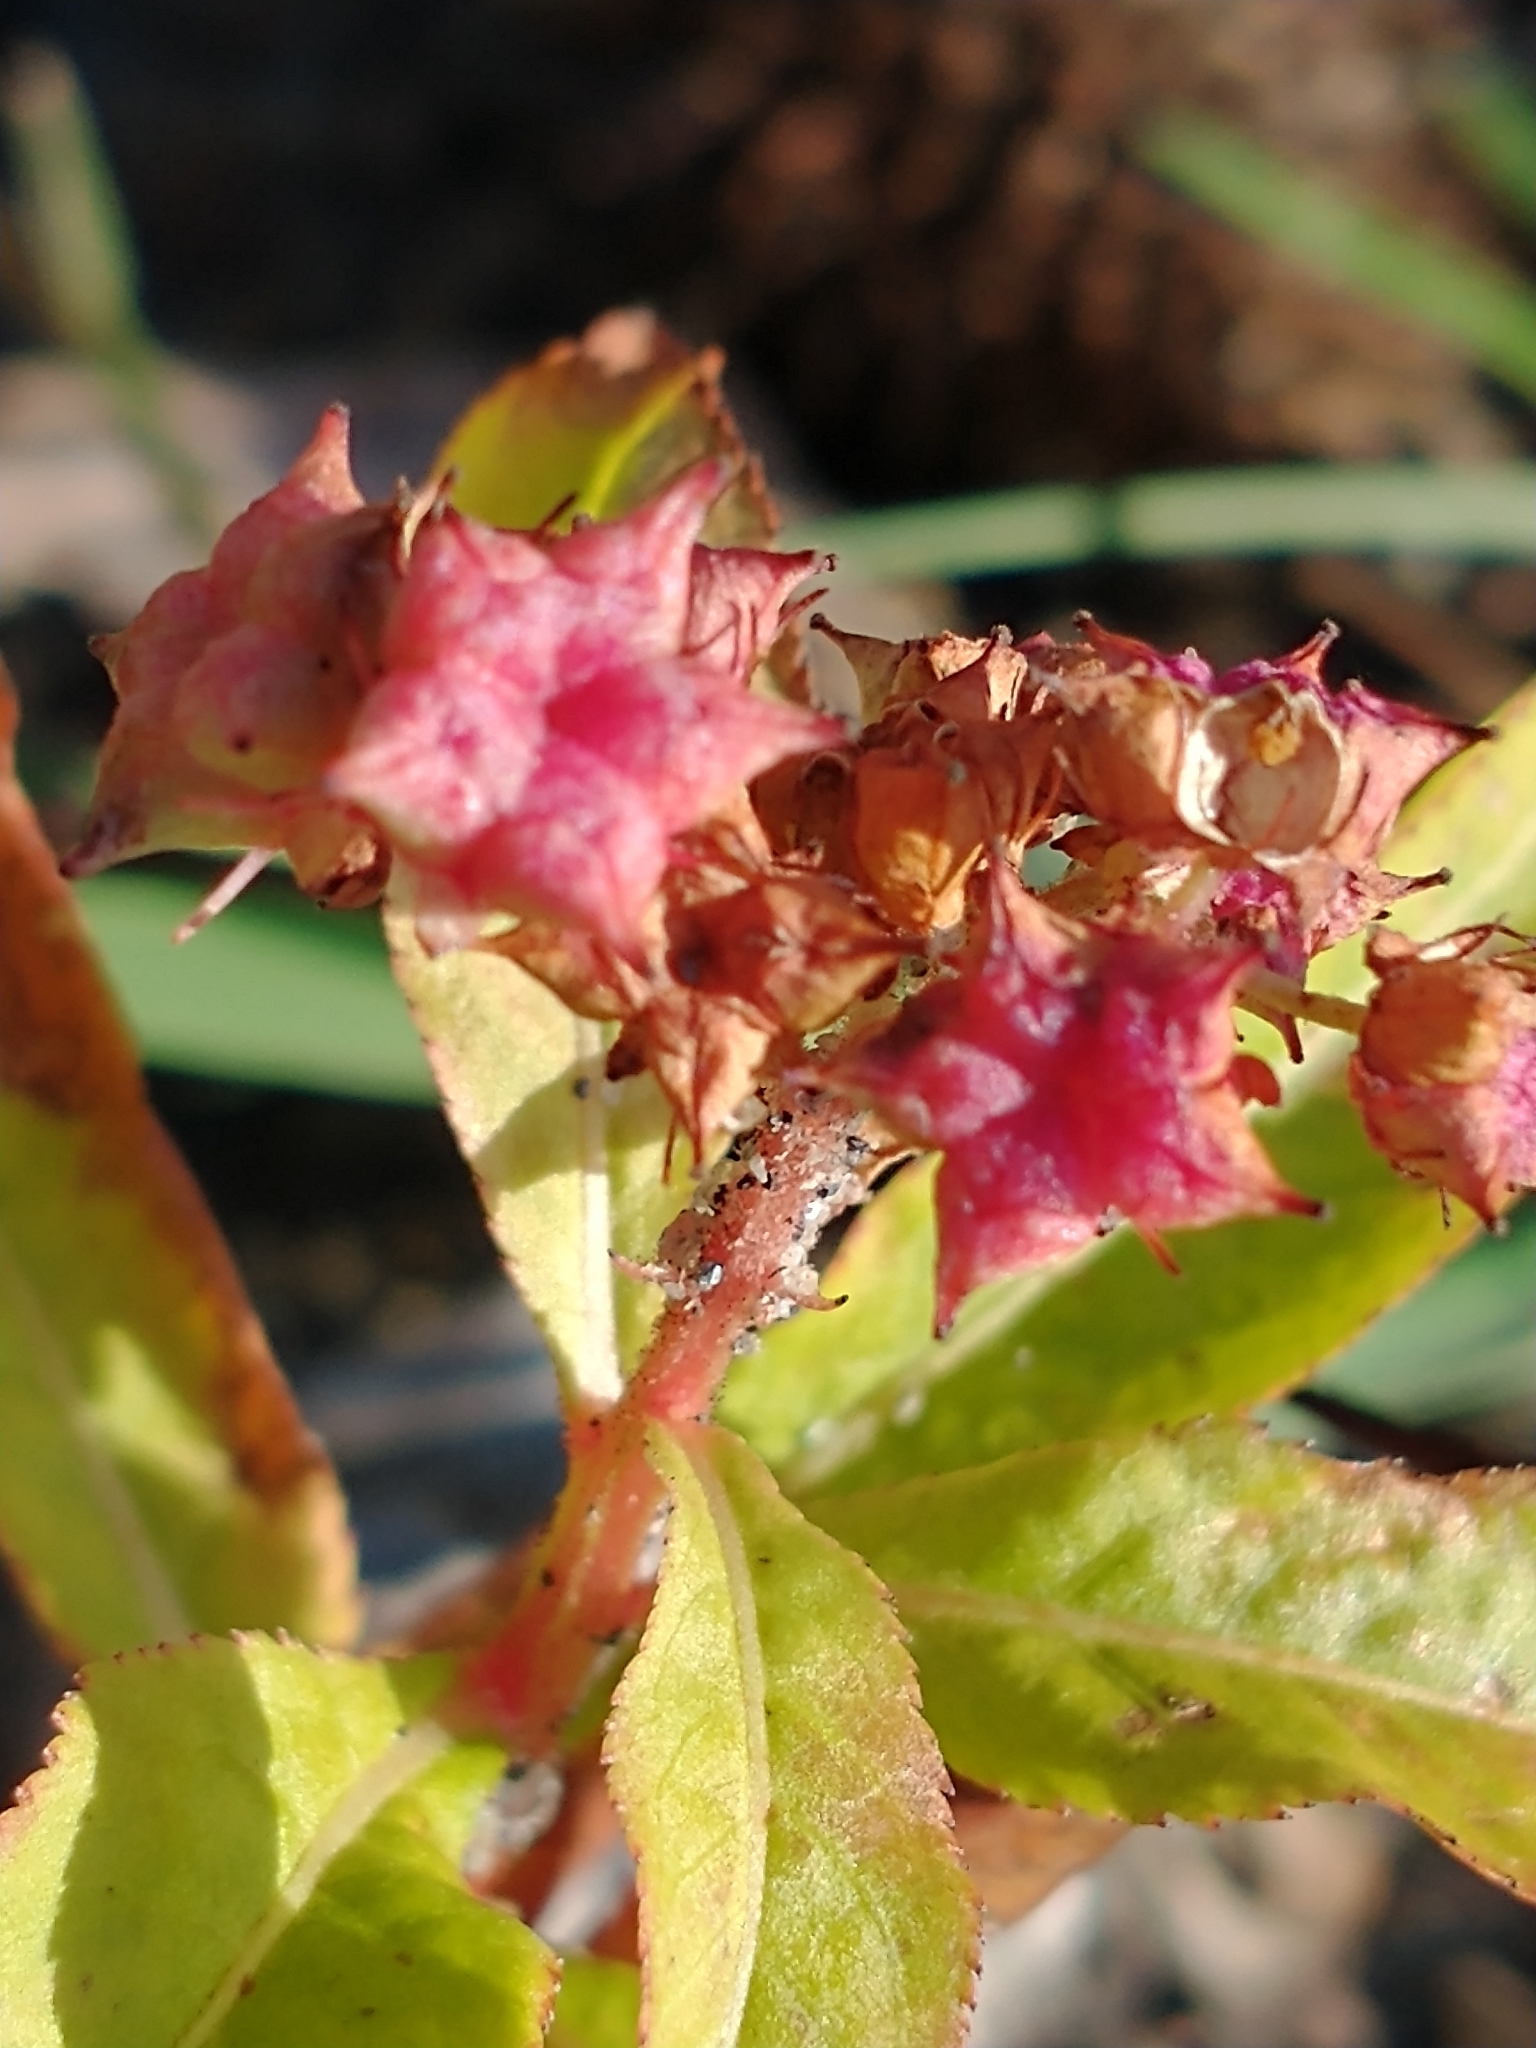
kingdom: Plantae
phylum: Tracheophyta
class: Magnoliopsida
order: Saxifragales
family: Penthoraceae
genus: Penthorum
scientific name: Penthorum sedoides
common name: Ditch stonecrop
